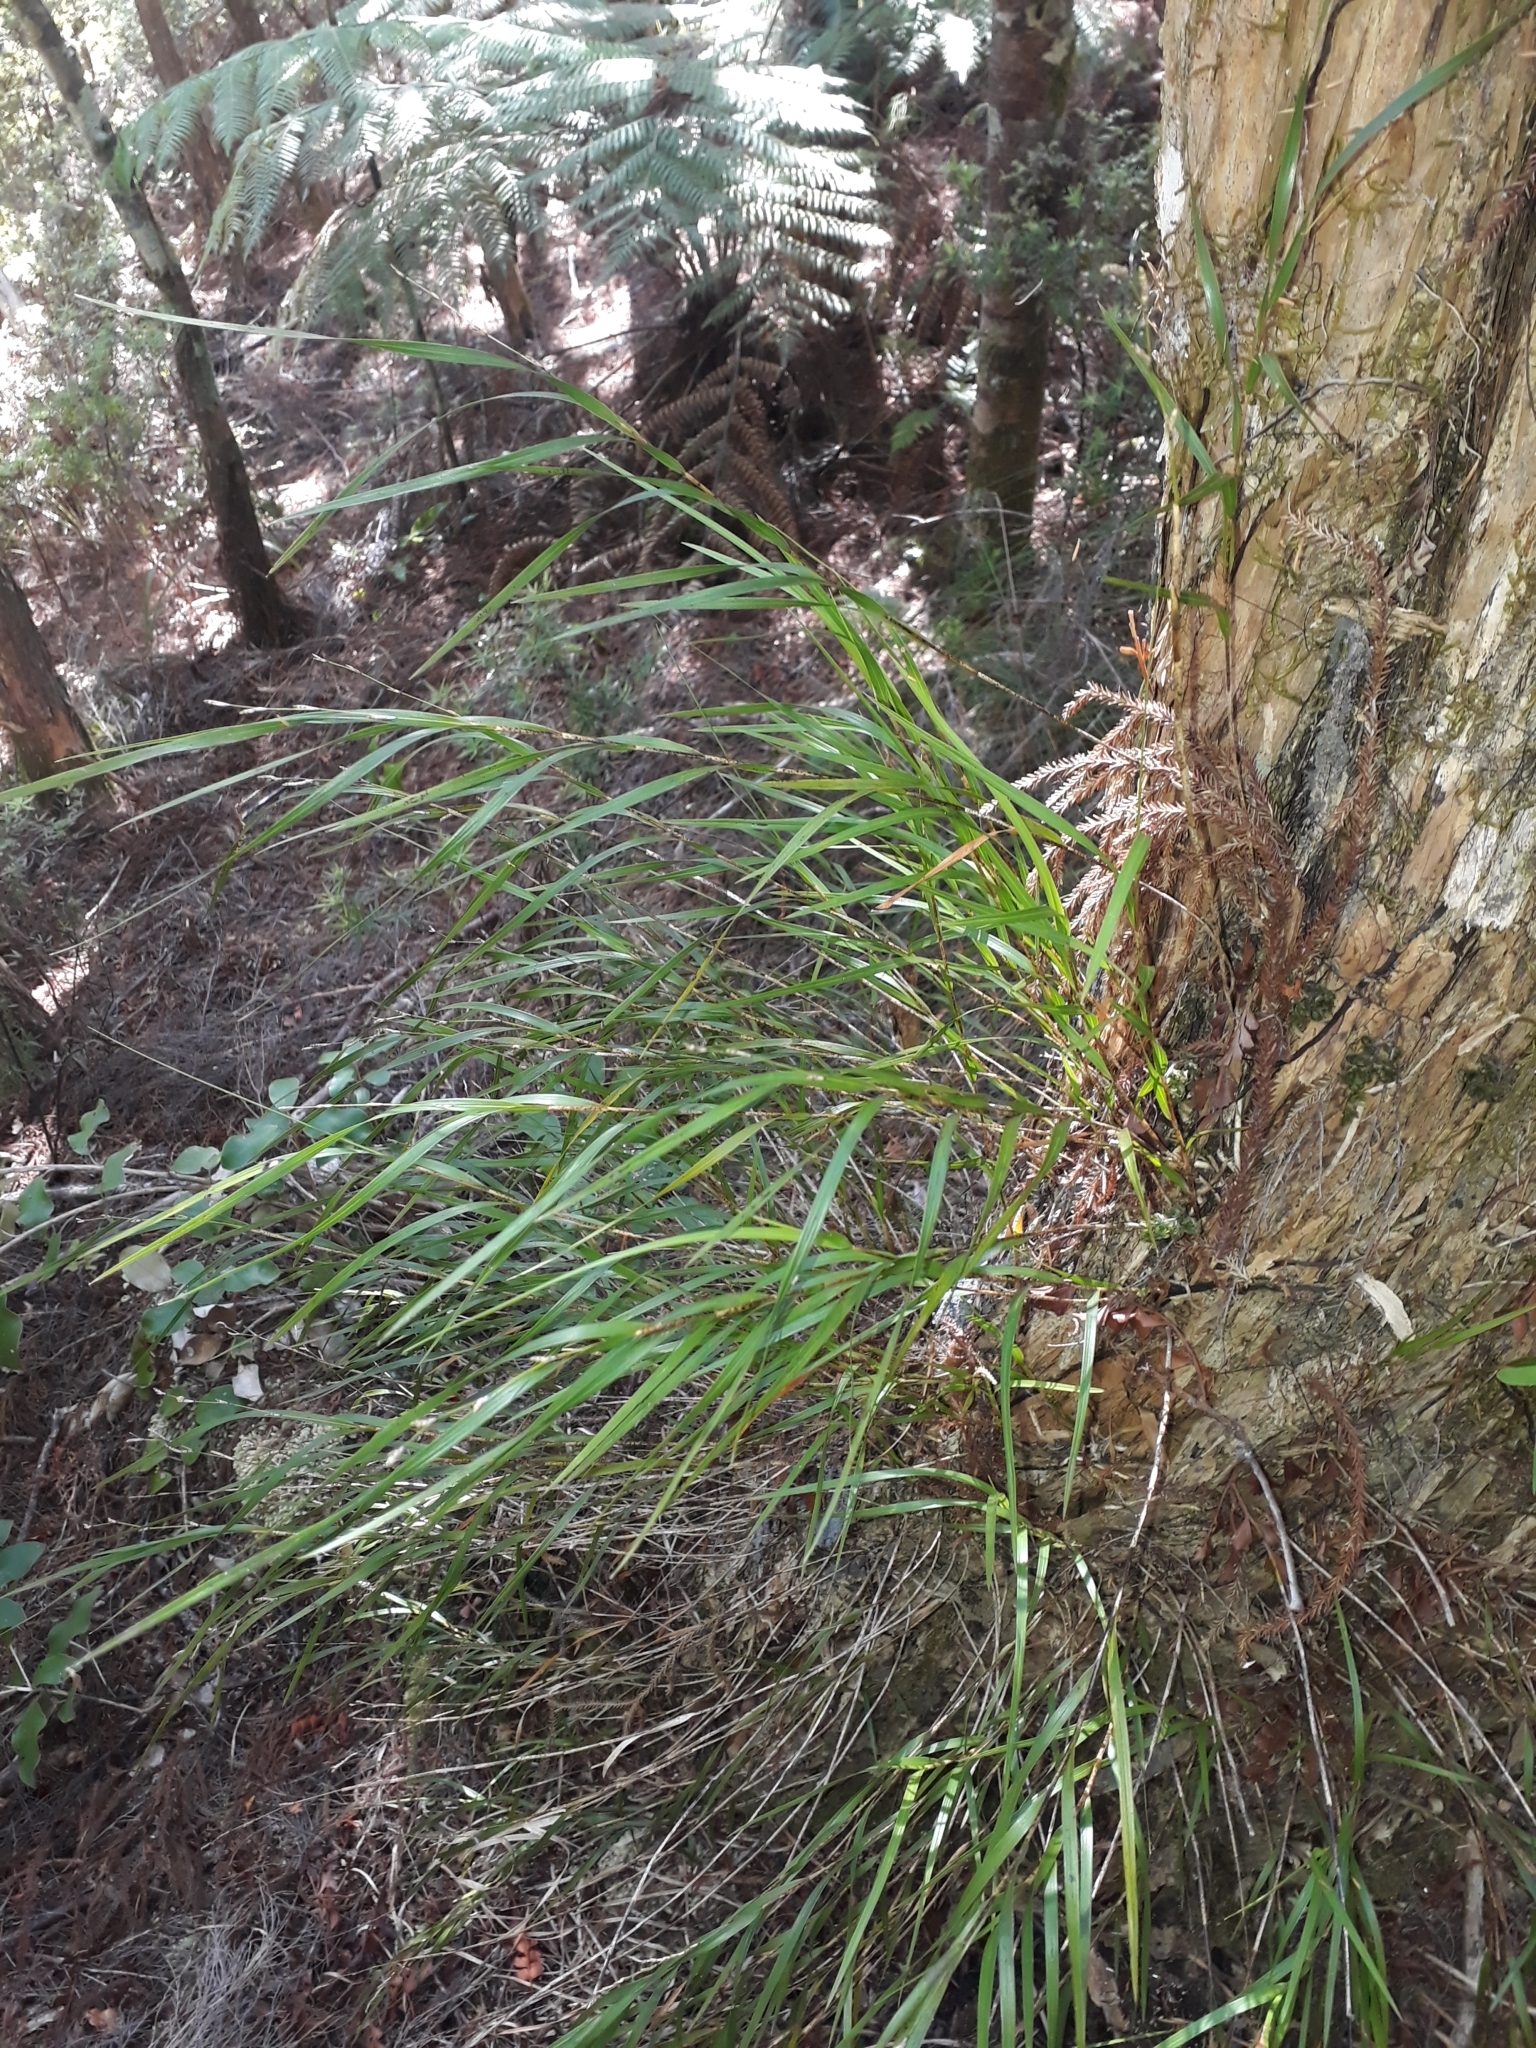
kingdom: Plantae
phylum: Tracheophyta
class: Liliopsida
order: Asparagales
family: Orchidaceae
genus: Earina
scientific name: Earina mucronata
